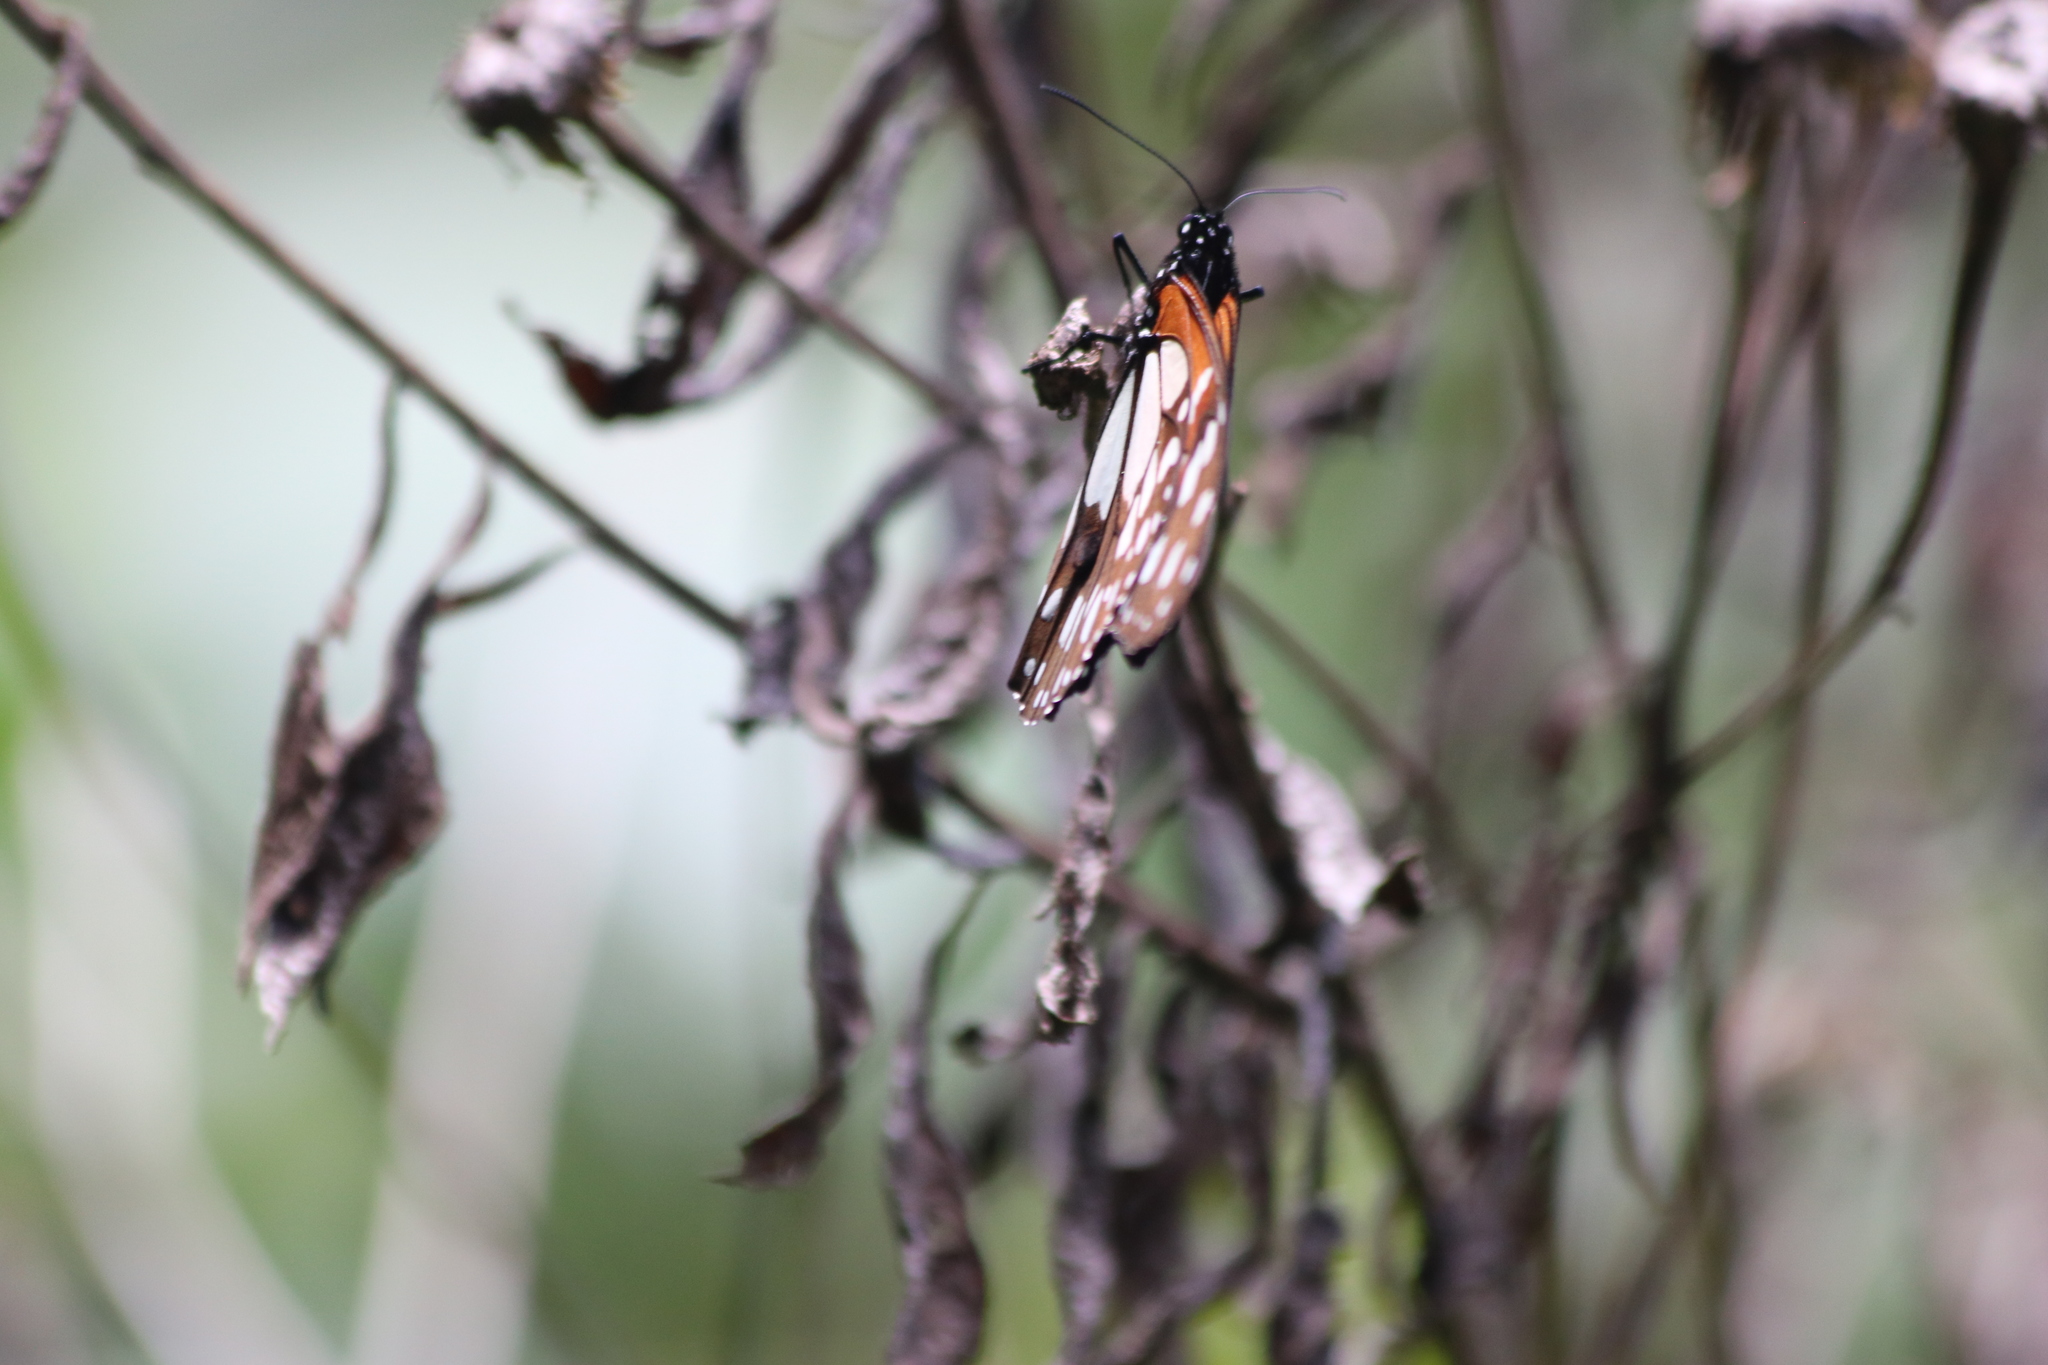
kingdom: Animalia
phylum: Arthropoda
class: Insecta
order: Lepidoptera
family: Nymphalidae
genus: Tirumala
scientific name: Tirumala formosa
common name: Beautiful monarch
